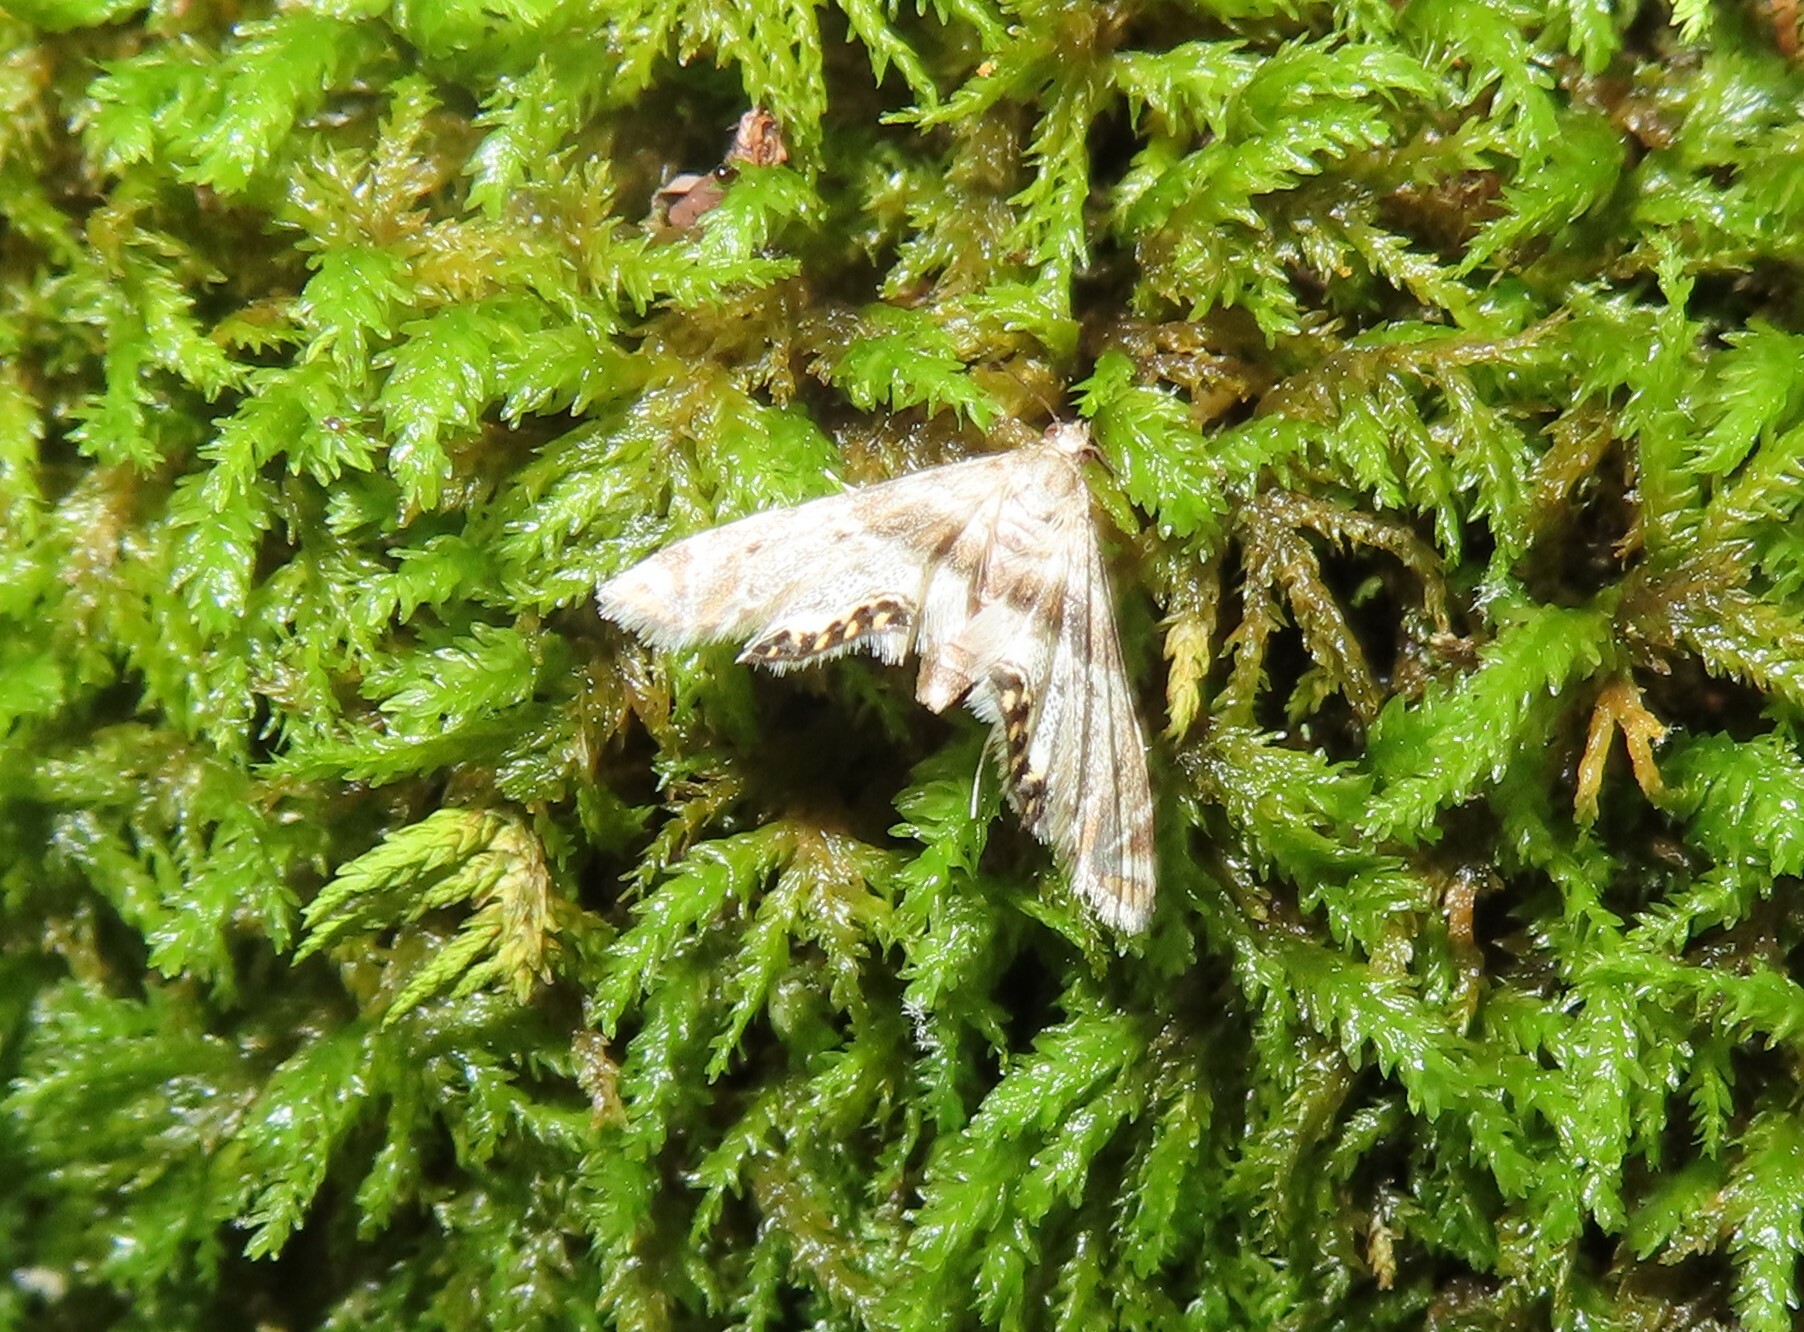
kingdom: Animalia
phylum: Arthropoda
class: Insecta
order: Lepidoptera
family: Crambidae
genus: Petrophila
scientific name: Petrophila fulicalis
